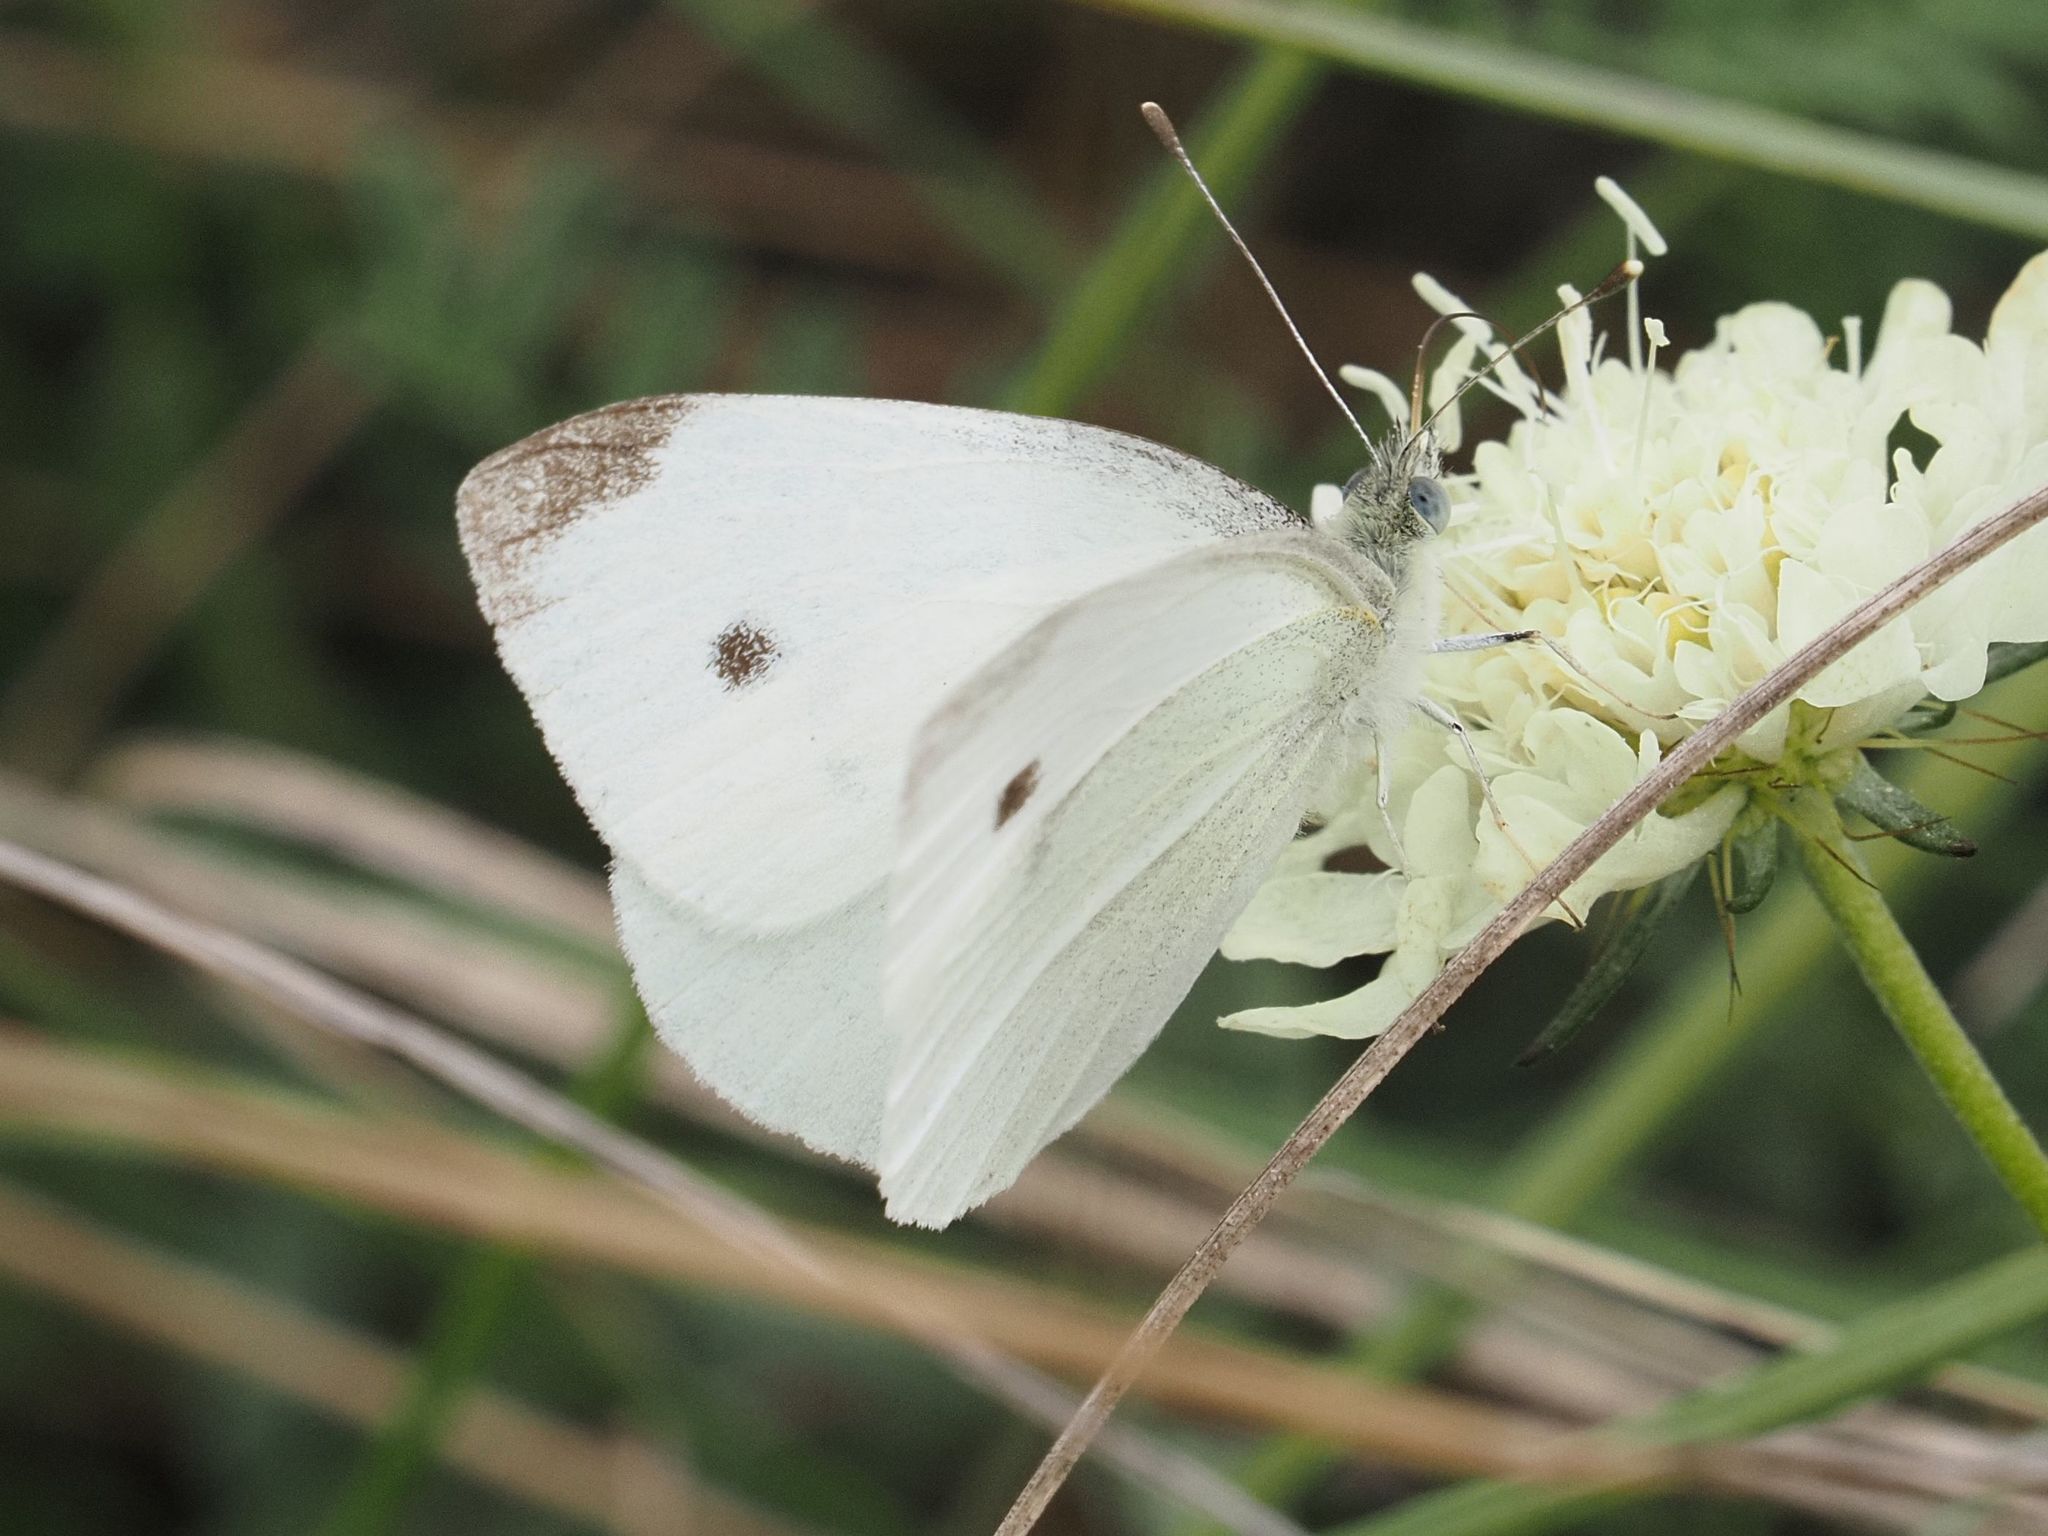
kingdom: Animalia
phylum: Arthropoda
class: Insecta
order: Lepidoptera
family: Pieridae
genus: Pieris
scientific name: Pieris rapae
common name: Small white
